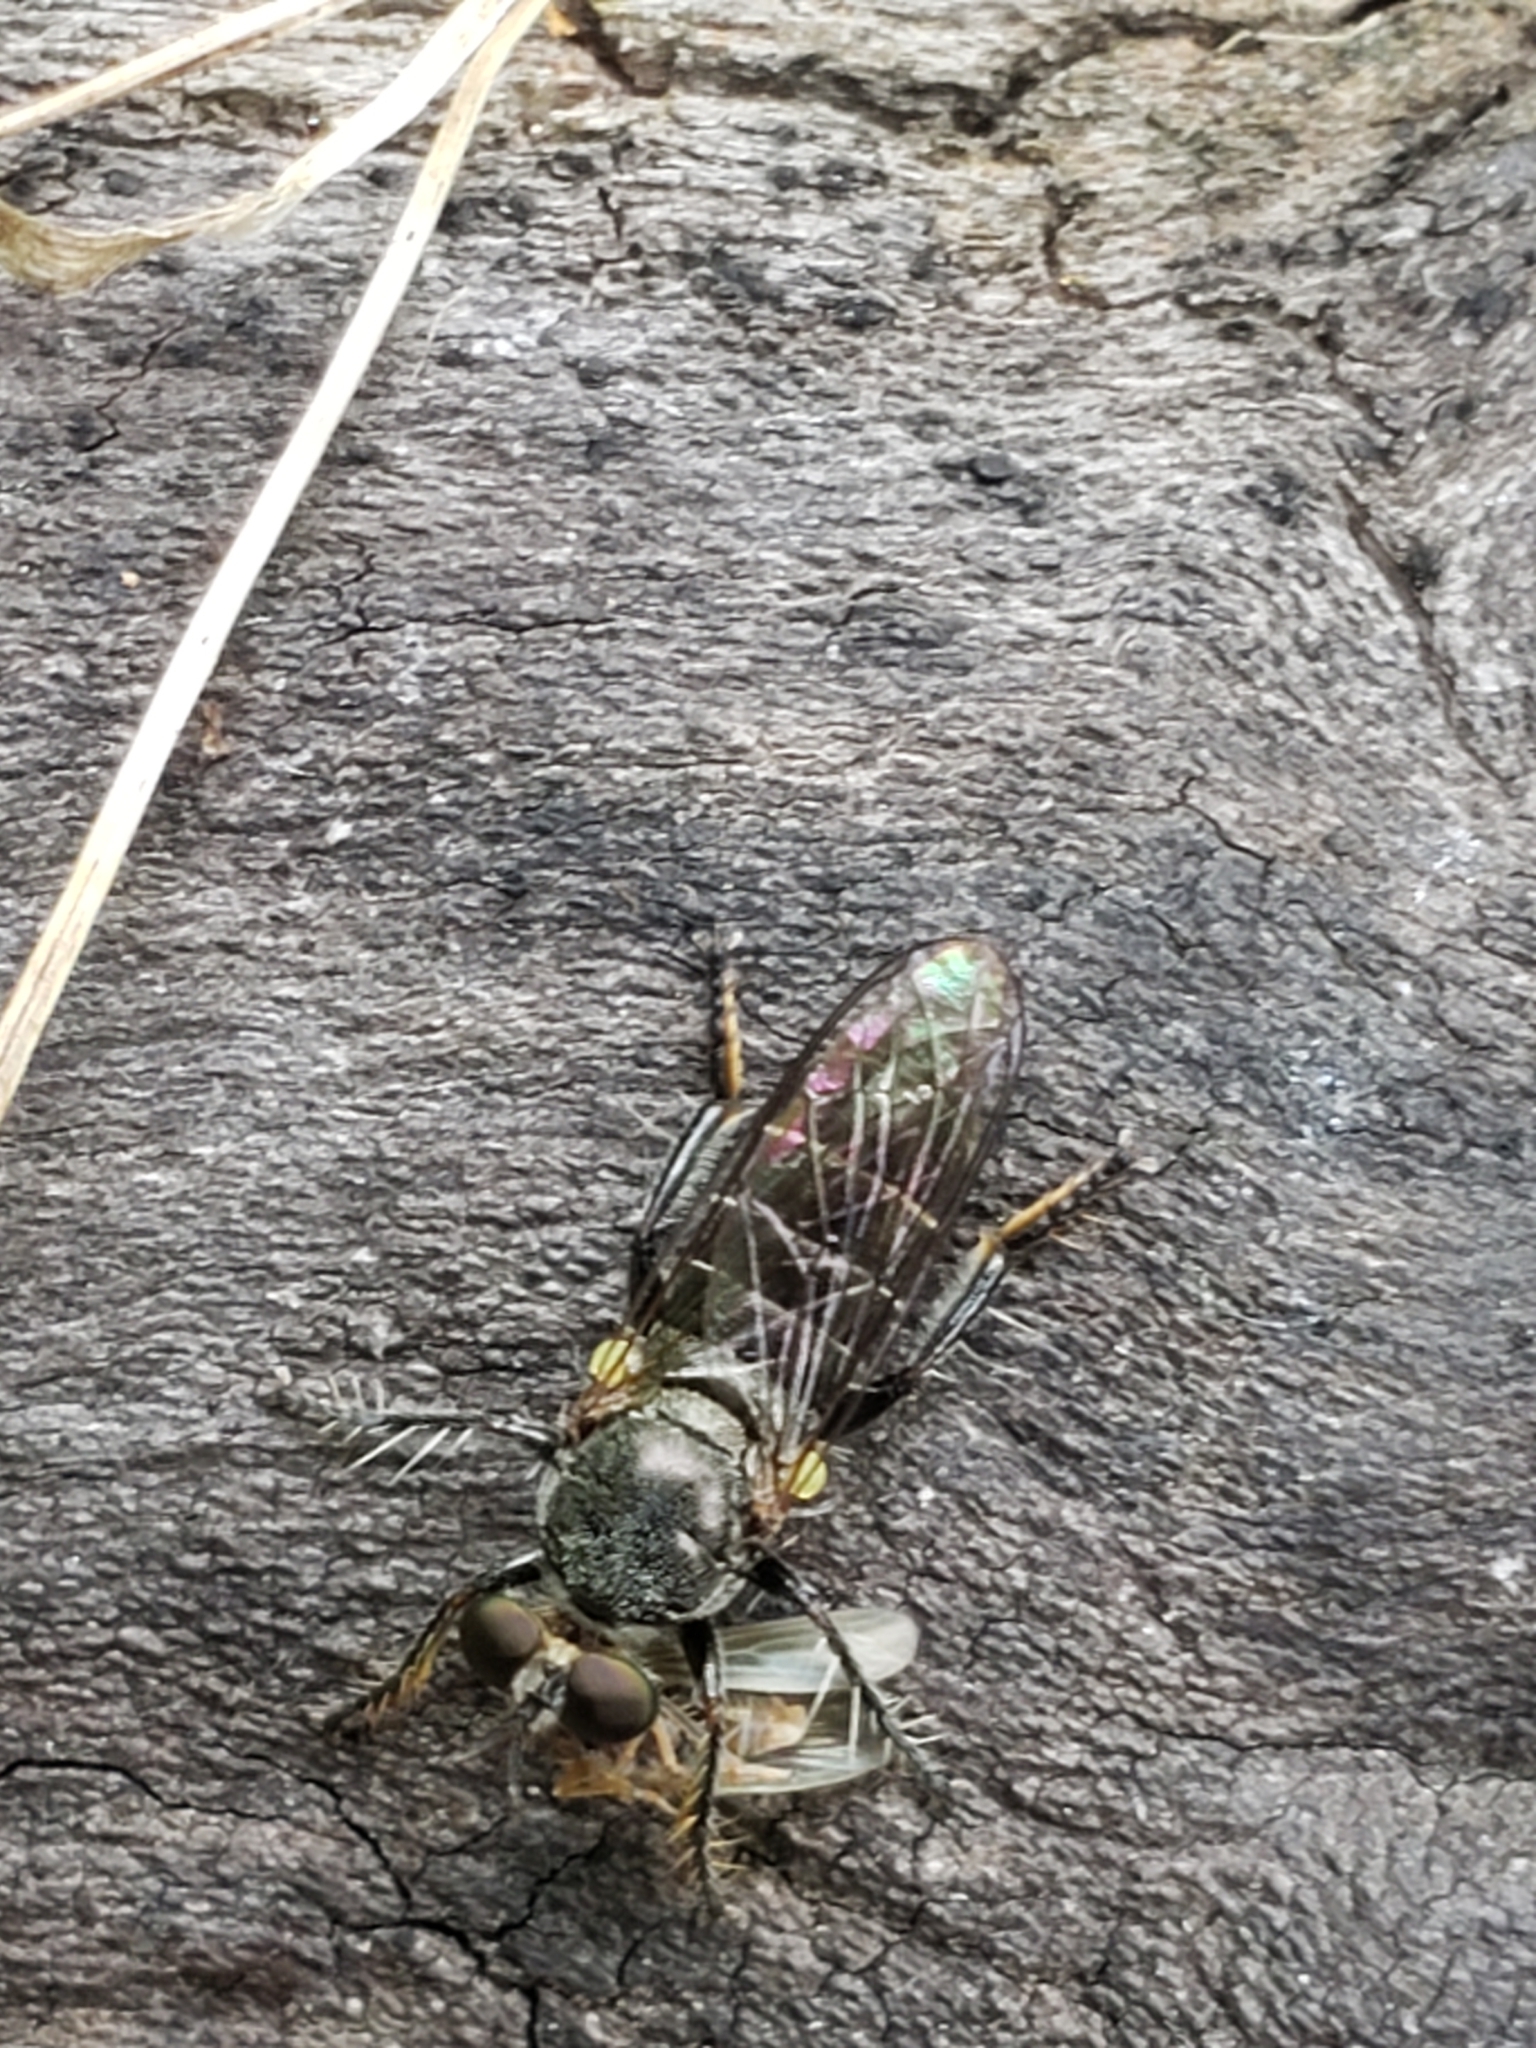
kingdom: Animalia
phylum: Arthropoda
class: Insecta
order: Diptera
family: Asilidae
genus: Atomosia
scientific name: Atomosia puella
